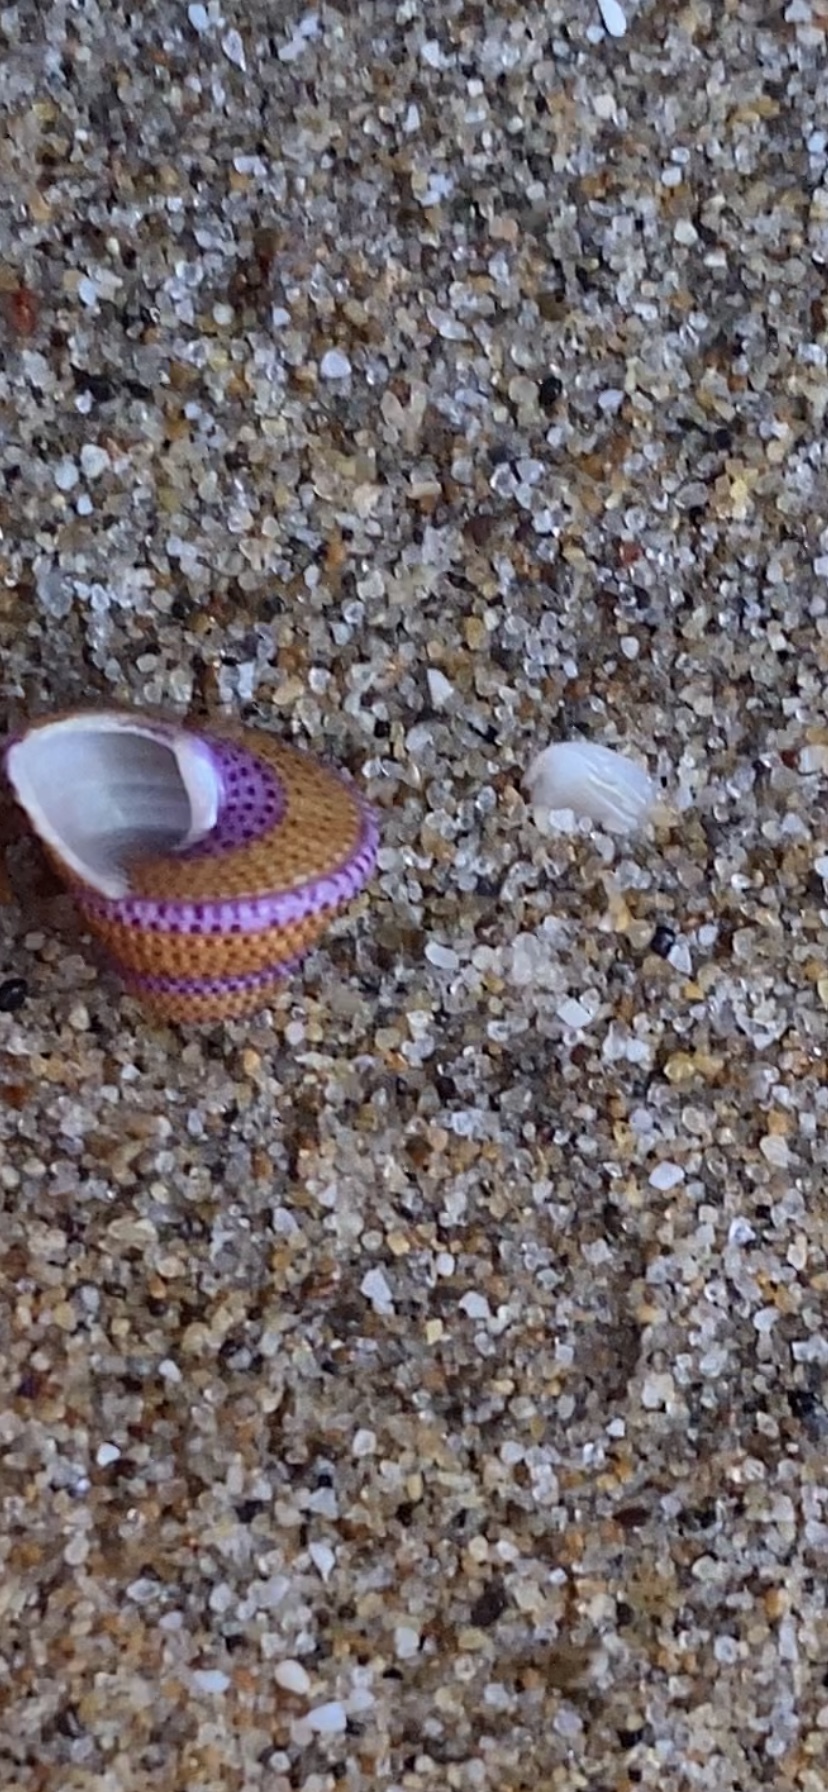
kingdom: Animalia
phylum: Mollusca
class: Gastropoda
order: Trochida
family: Calliostomatidae
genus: Calliostoma
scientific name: Calliostoma annulatum
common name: Blue-ring topsnail
